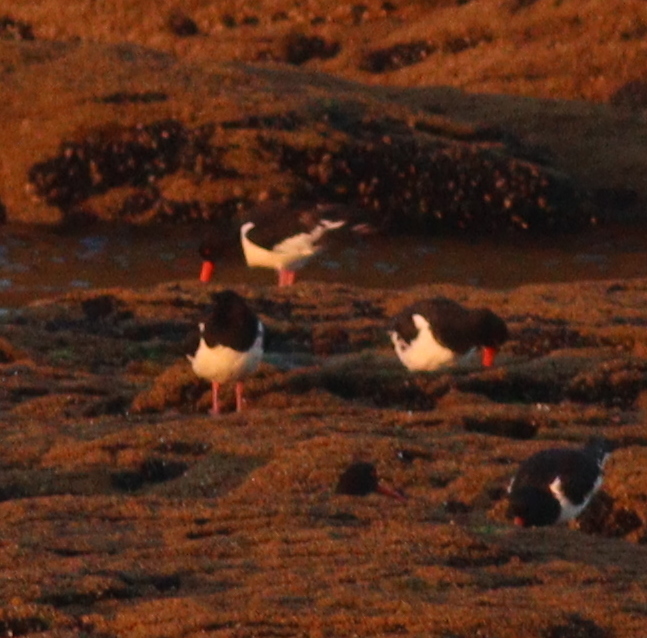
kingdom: Animalia
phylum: Chordata
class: Aves
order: Charadriiformes
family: Haematopodidae
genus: Haematopus
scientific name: Haematopus ostralegus
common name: Eurasian oystercatcher
